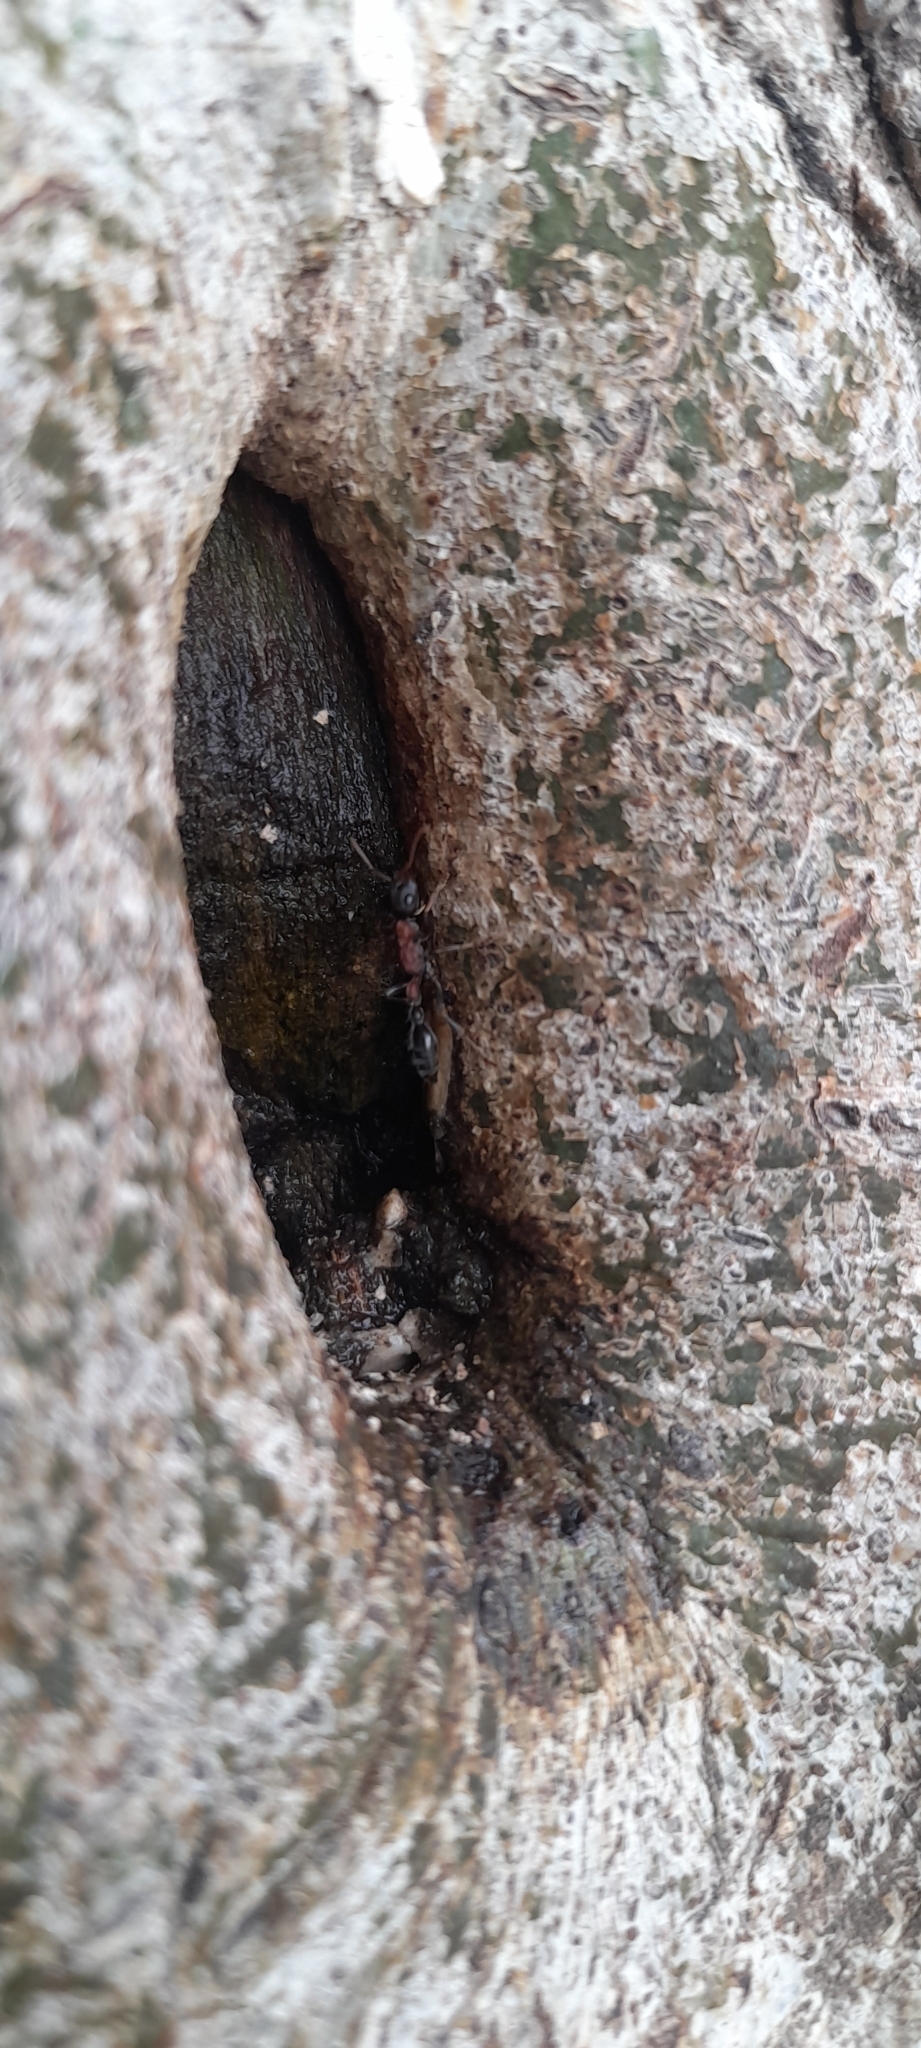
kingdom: Animalia
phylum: Arthropoda
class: Insecta
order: Hymenoptera
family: Formicidae
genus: Tetraponera
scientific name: Tetraponera rufonigra
